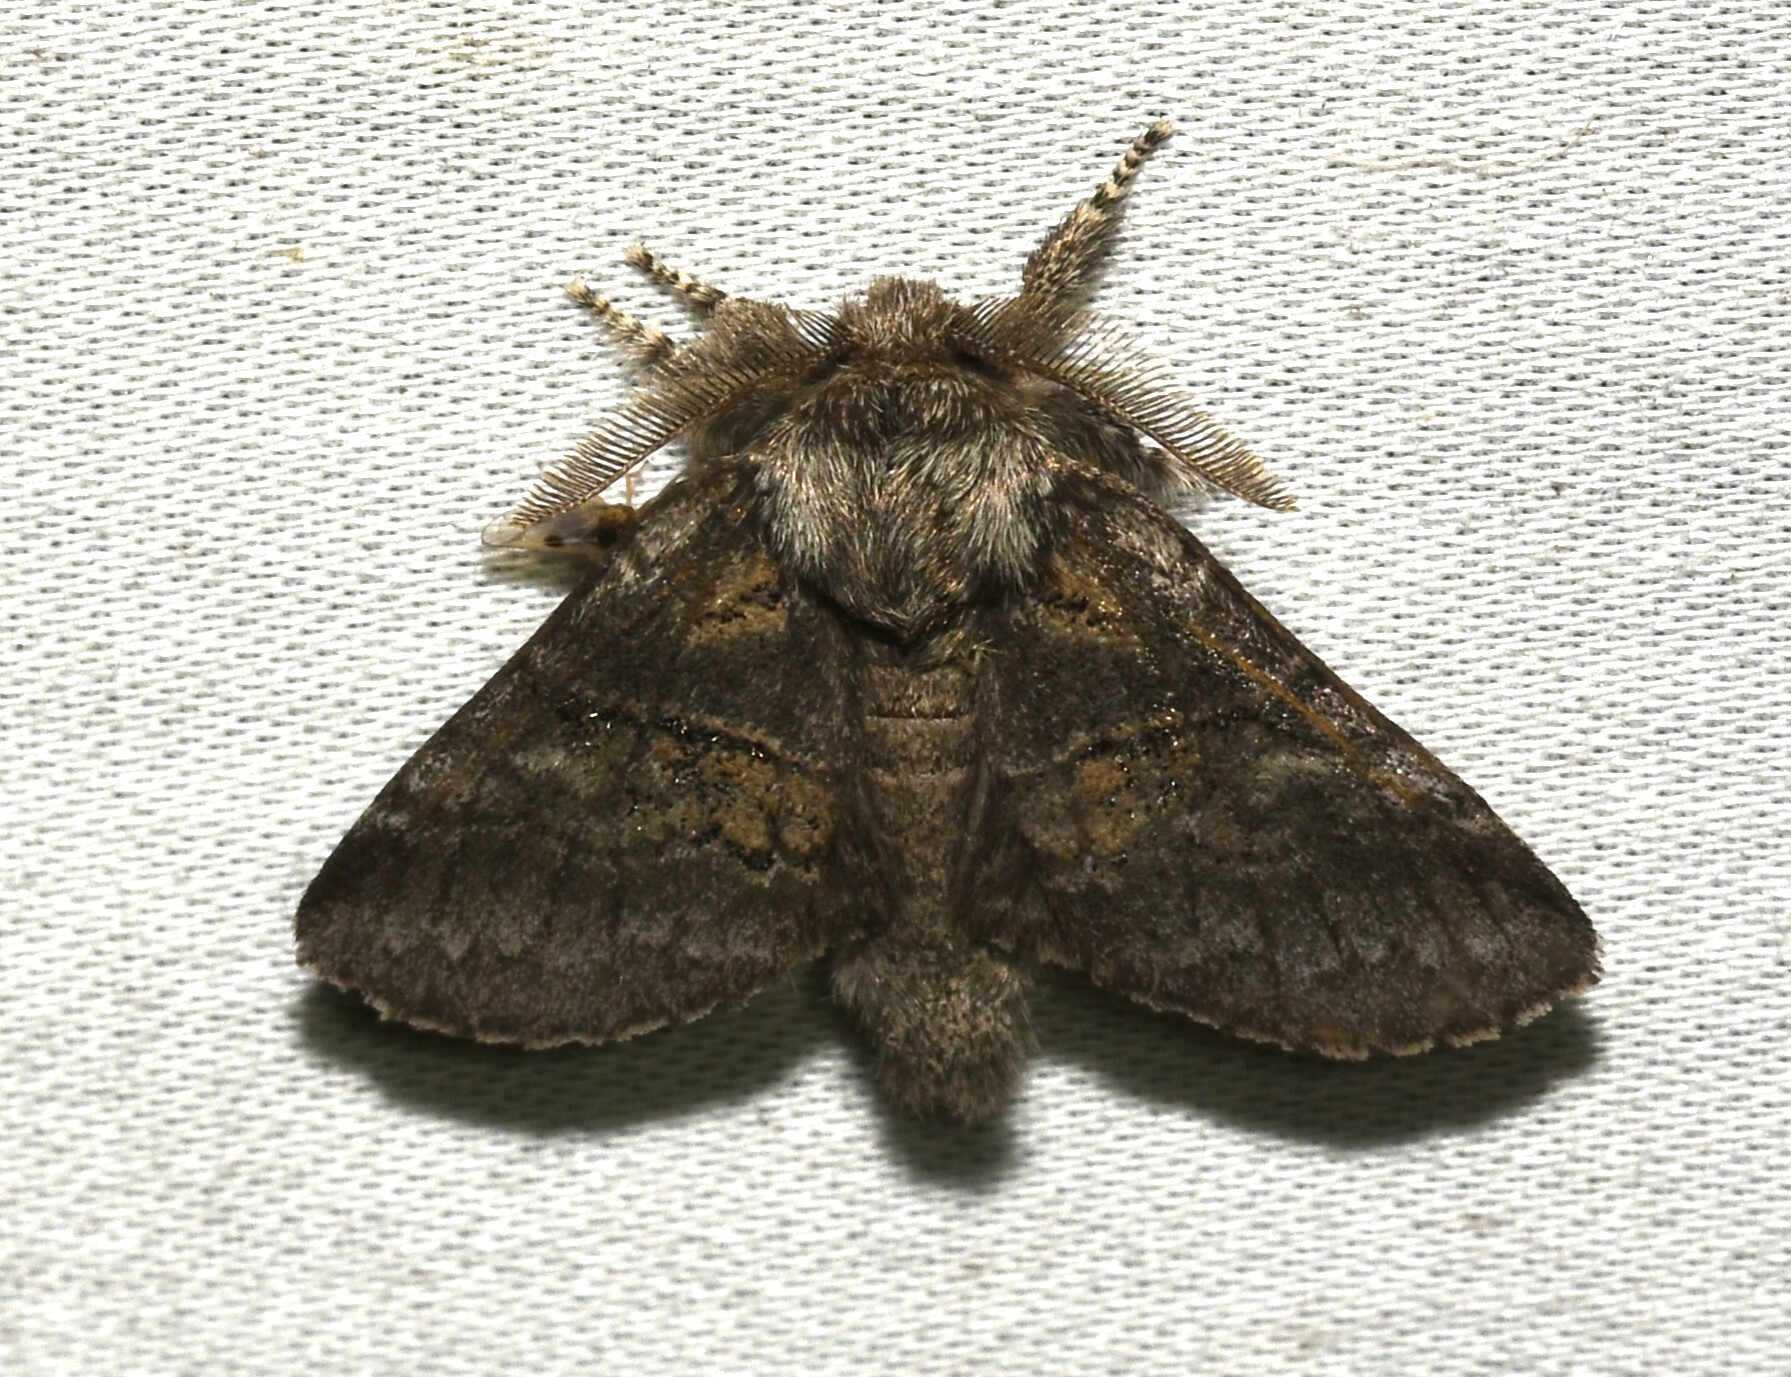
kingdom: Animalia
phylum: Arthropoda
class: Insecta
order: Lepidoptera
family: Notodontidae
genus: Gluphisia
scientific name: Gluphisia septentrionis
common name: Common gluphisia
